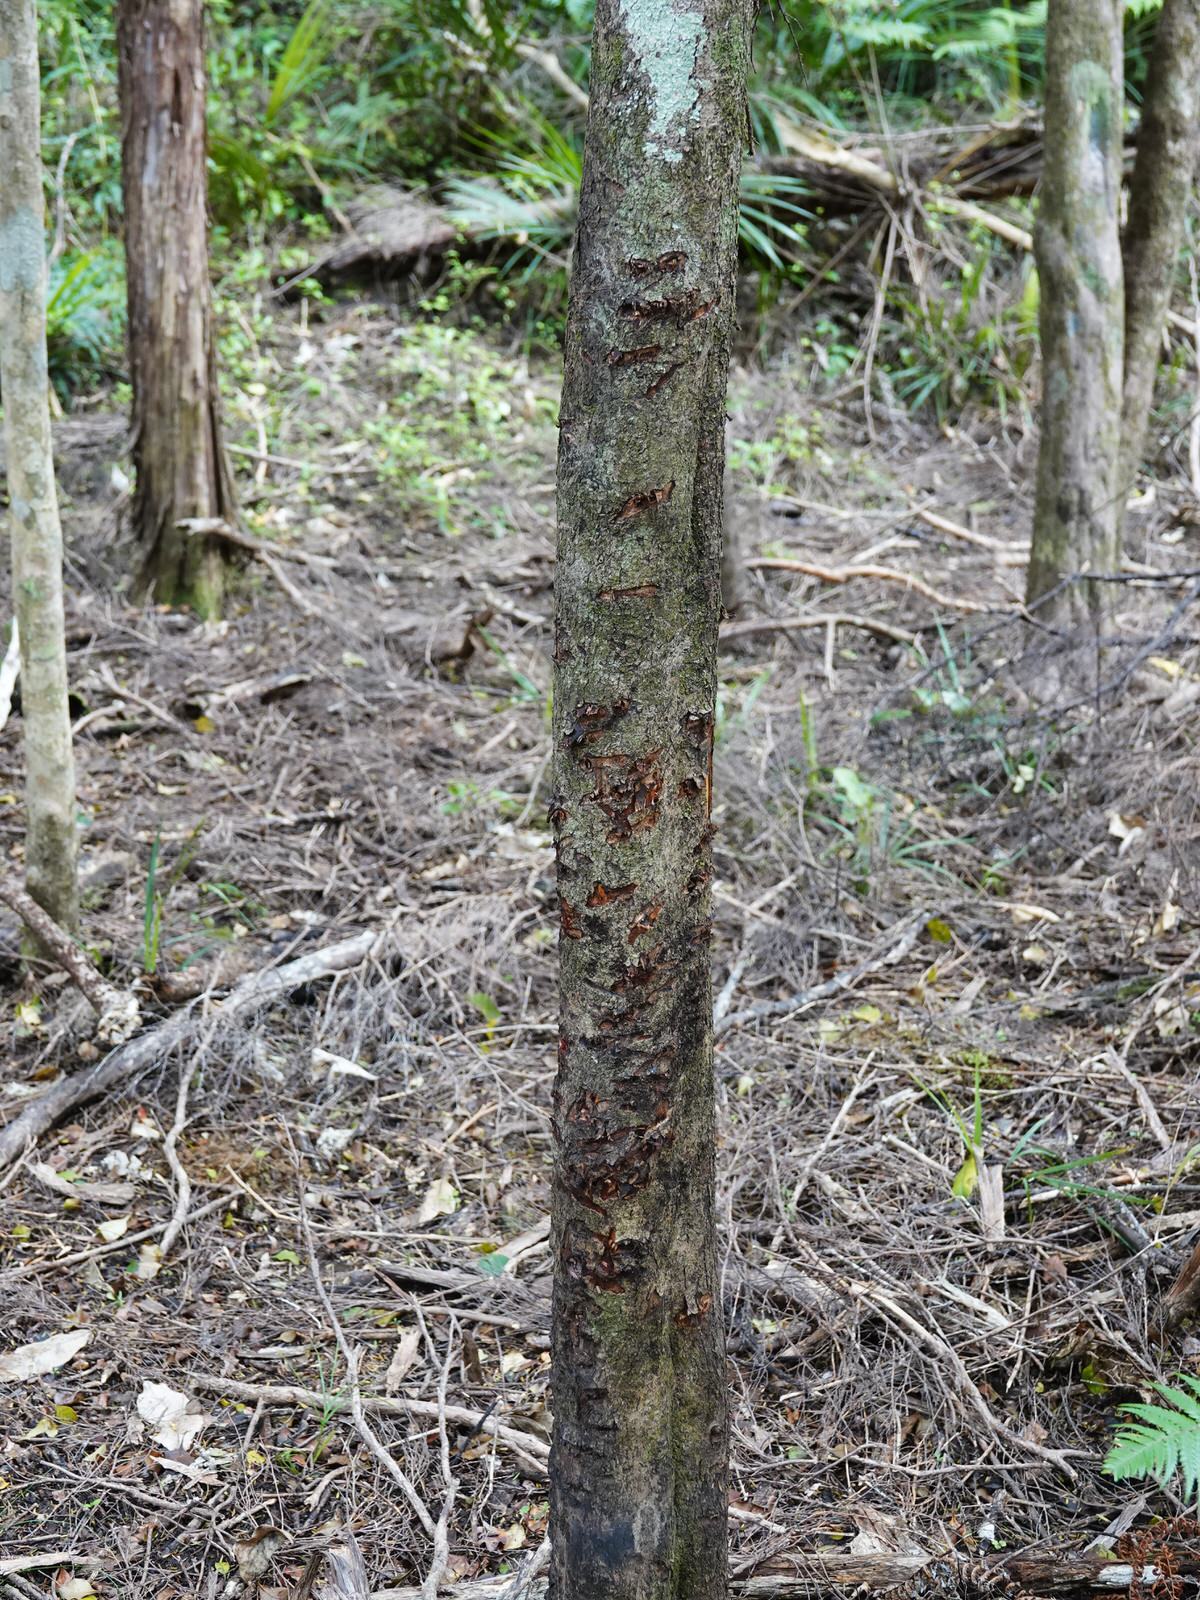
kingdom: Animalia
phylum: Chordata
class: Mammalia
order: Diprotodontia
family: Phalangeridae
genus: Trichosurus
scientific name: Trichosurus vulpecula
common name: Common brushtail
